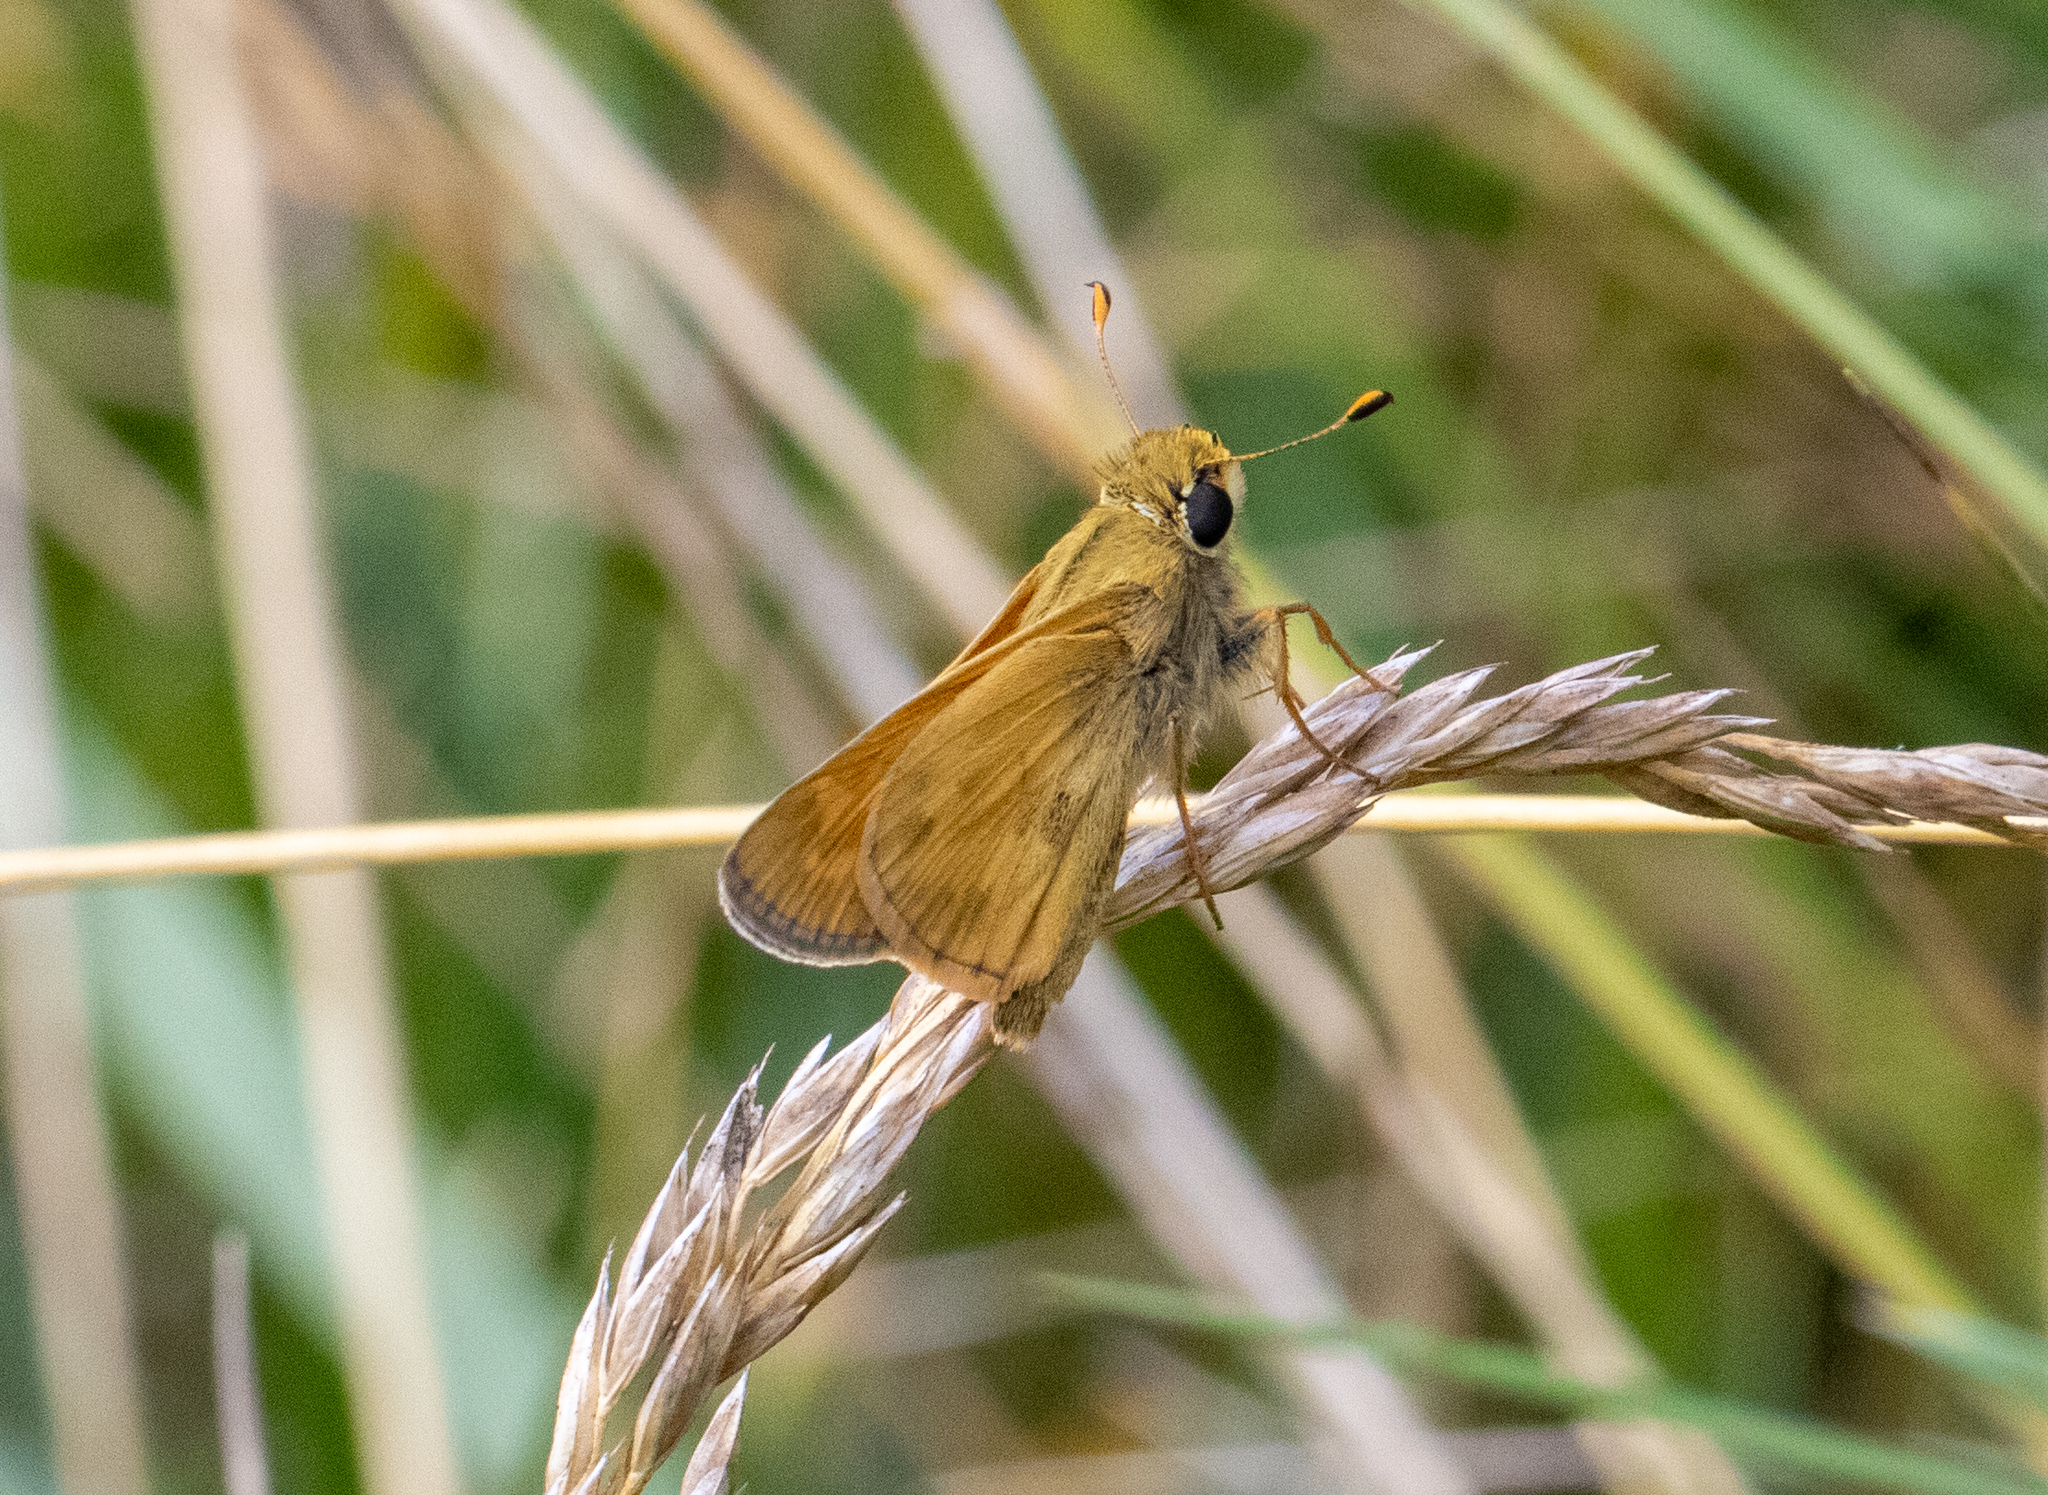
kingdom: Animalia
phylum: Arthropoda
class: Insecta
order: Lepidoptera
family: Hesperiidae
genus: Atalopedes
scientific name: Atalopedes
